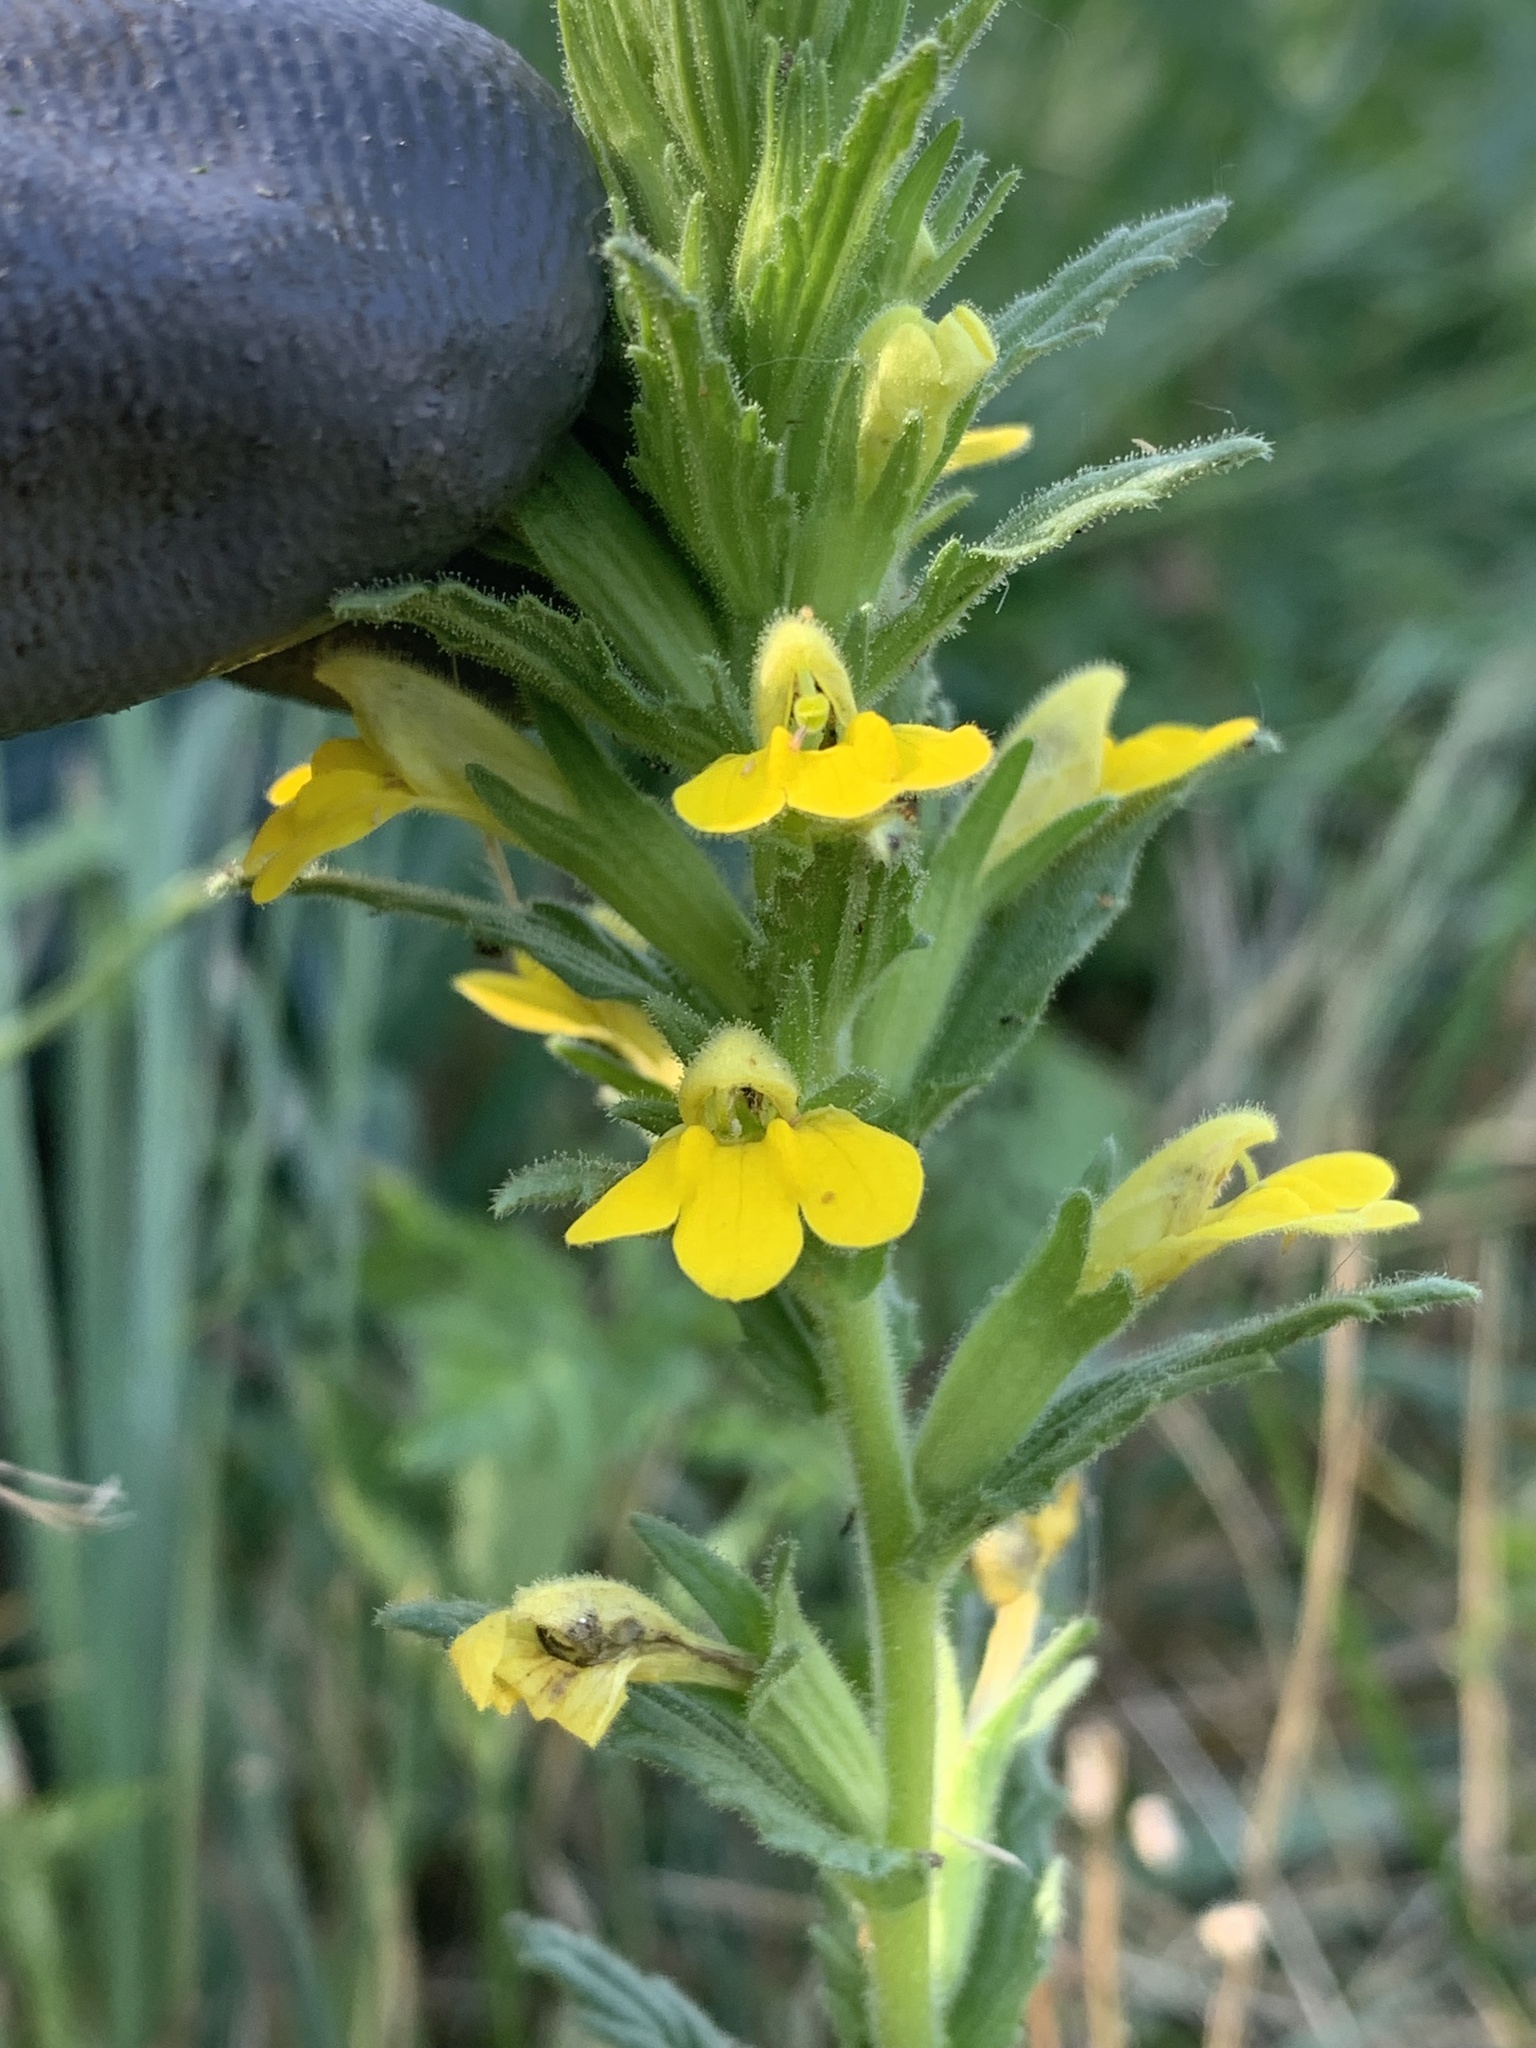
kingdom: Plantae
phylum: Tracheophyta
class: Magnoliopsida
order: Lamiales
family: Orobanchaceae
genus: Bellardia
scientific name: Bellardia viscosa
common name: Sticky parentucellia
